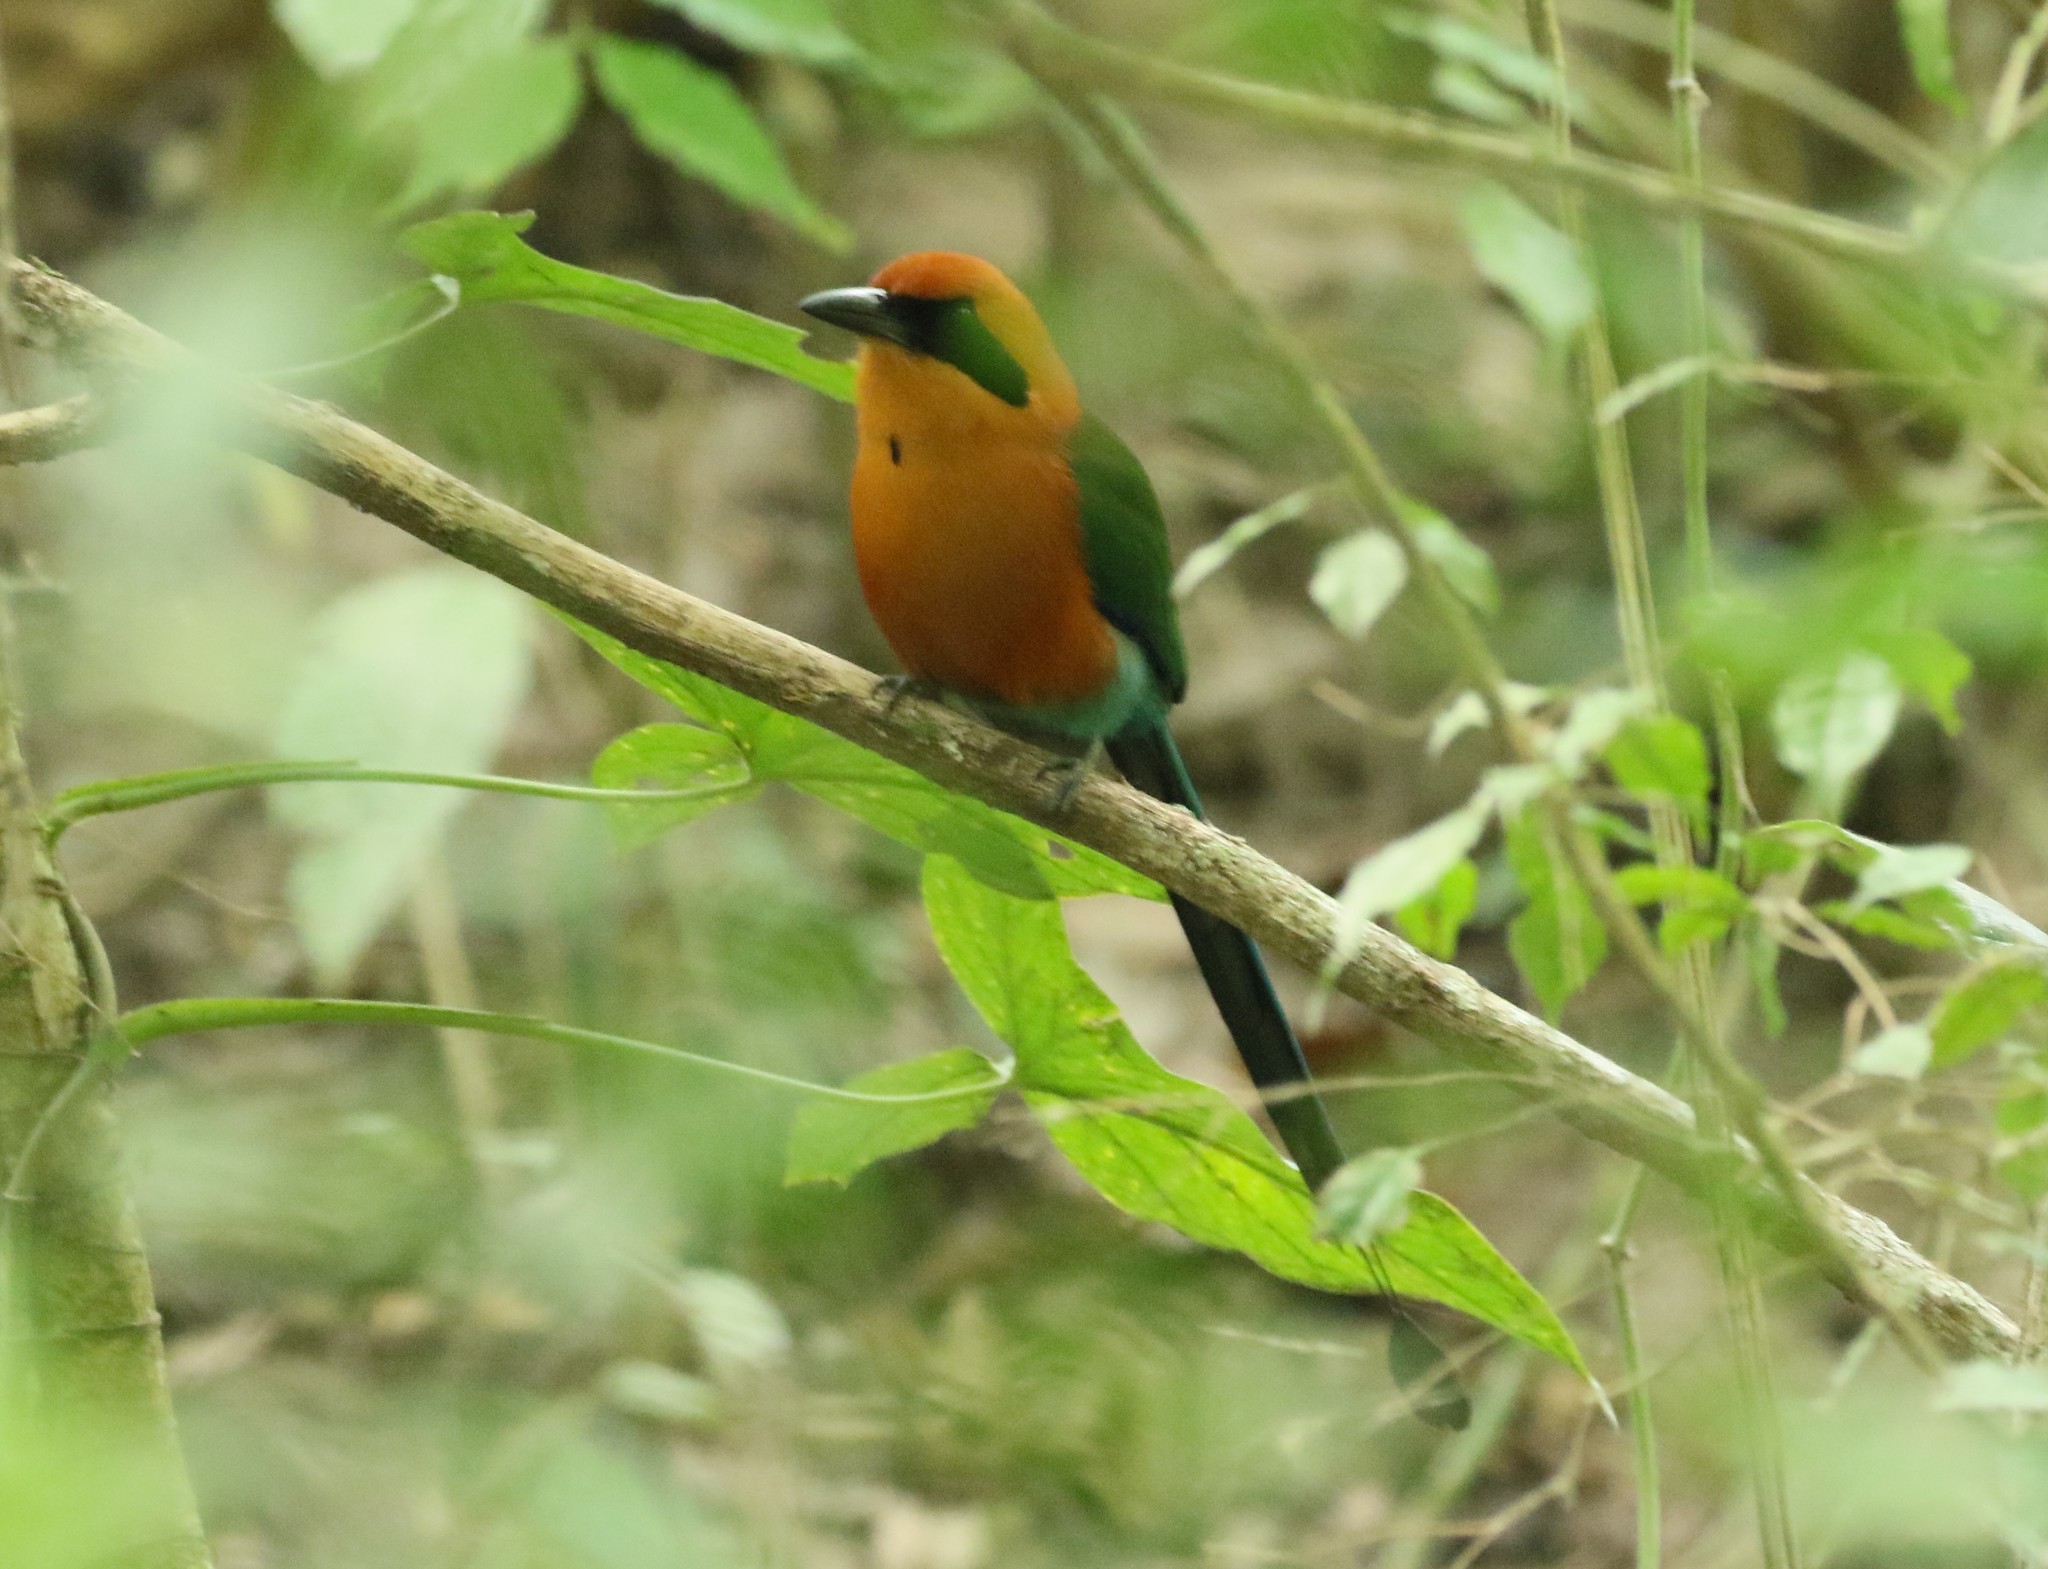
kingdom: Animalia
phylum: Chordata
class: Aves
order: Coraciiformes
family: Momotidae
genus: Baryphthengus
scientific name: Baryphthengus martii
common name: Rufous motmot
